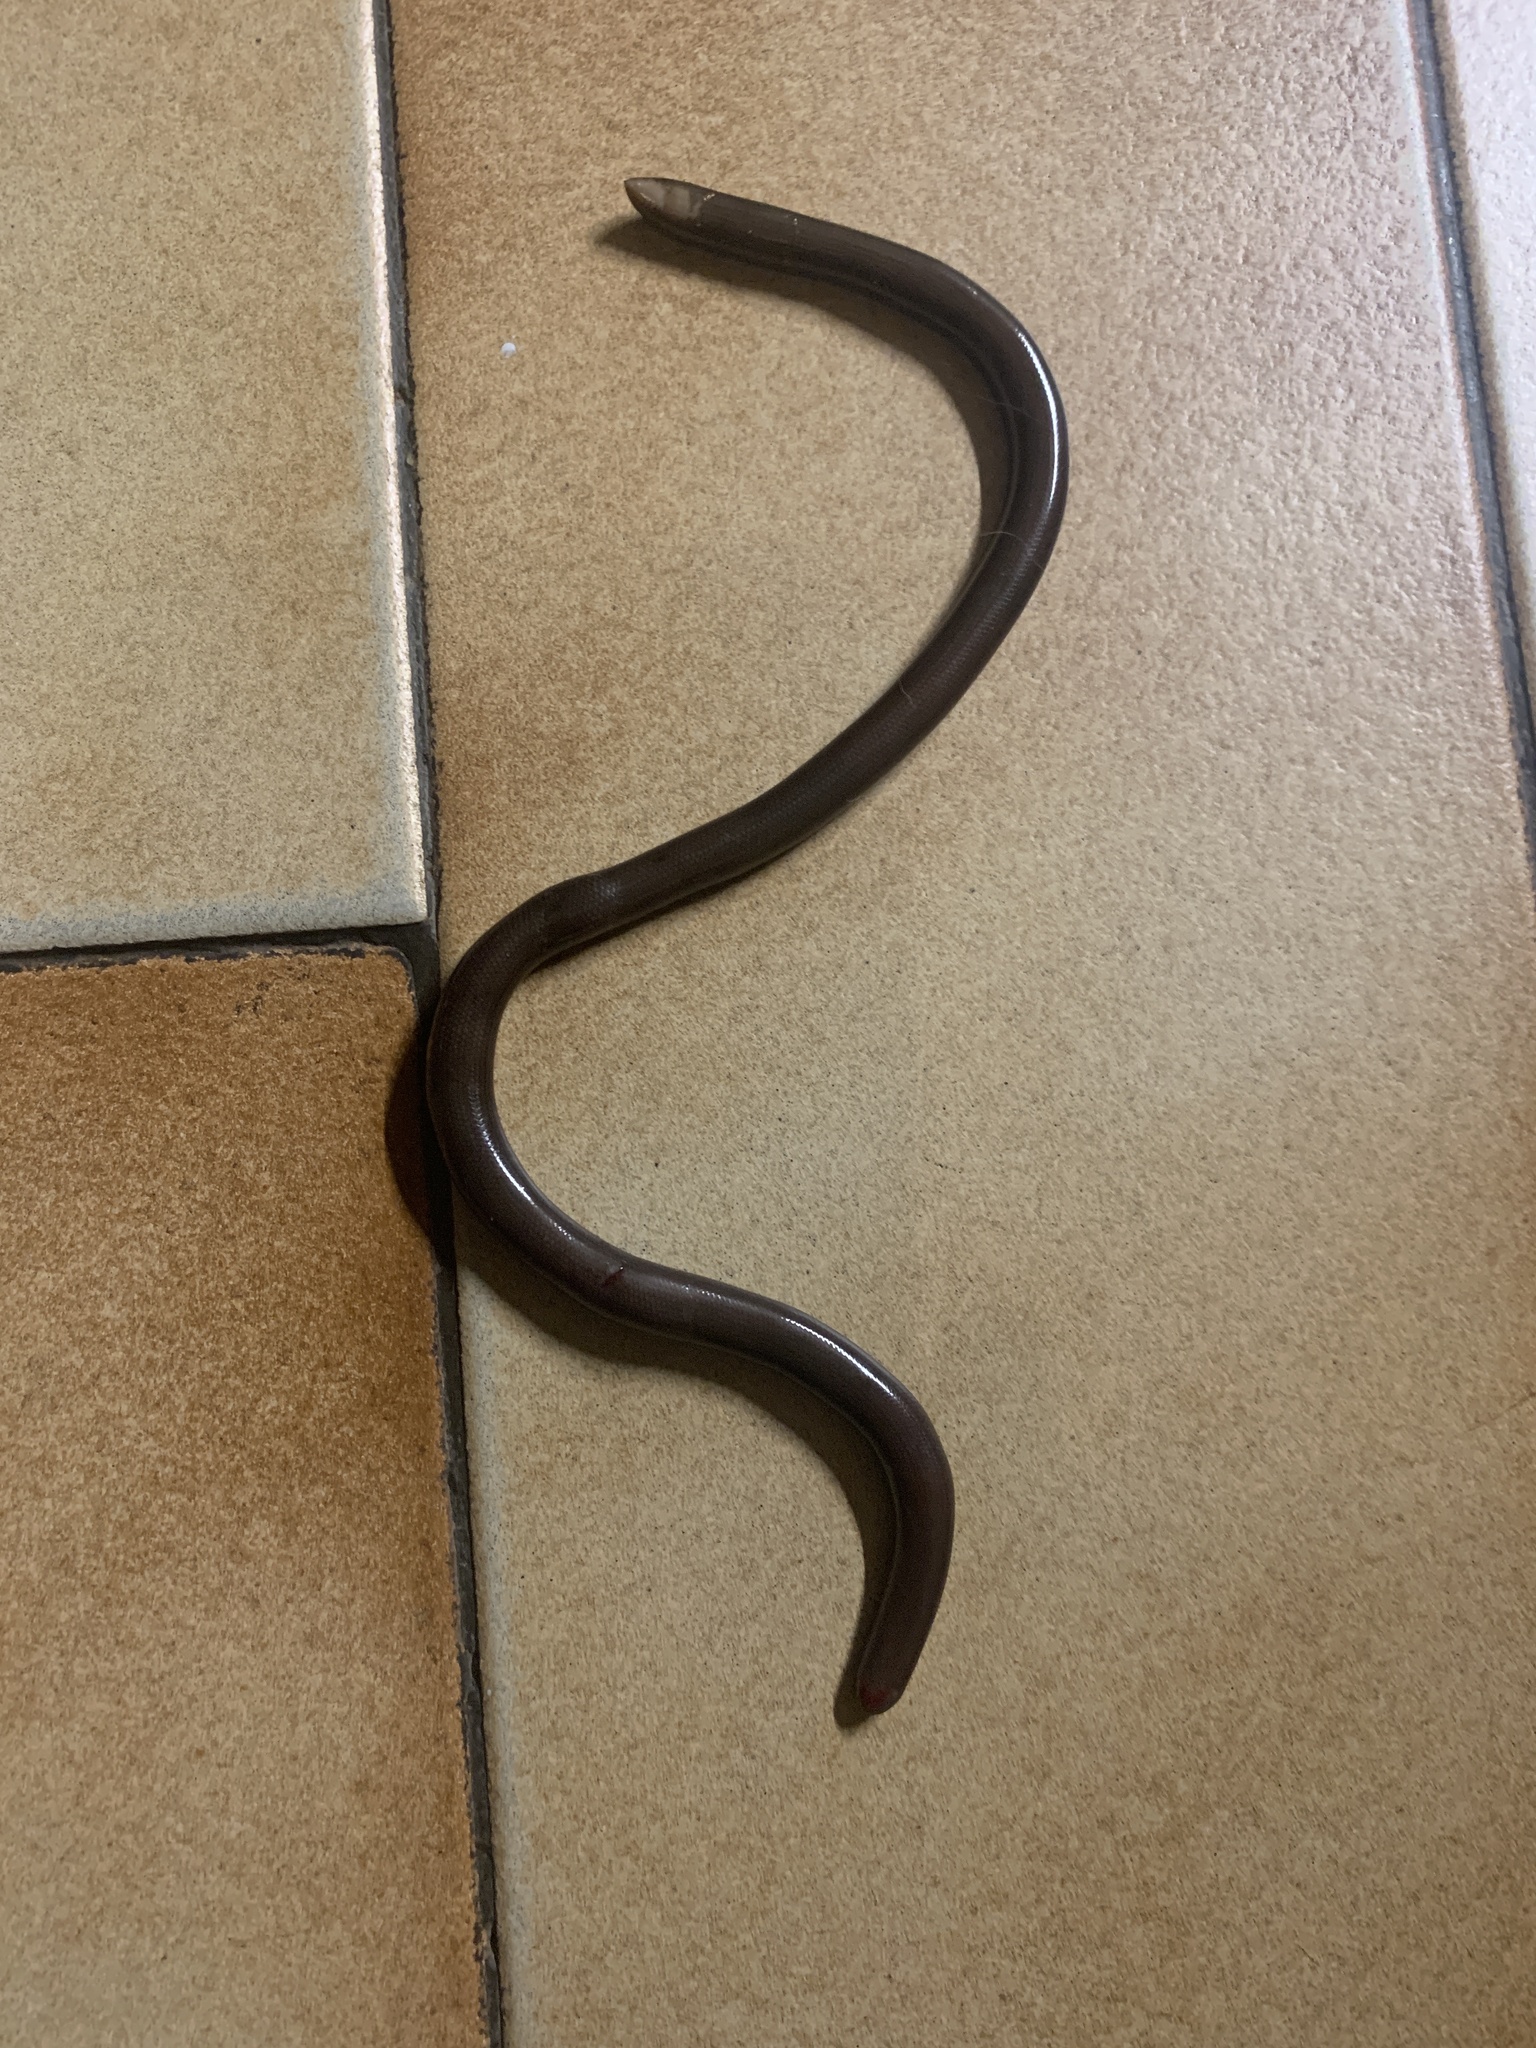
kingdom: Animalia
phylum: Chordata
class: Squamata
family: Typhlopidae
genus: Afrotyphlops
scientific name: Afrotyphlops bibronii
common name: Bibron's blind snake
